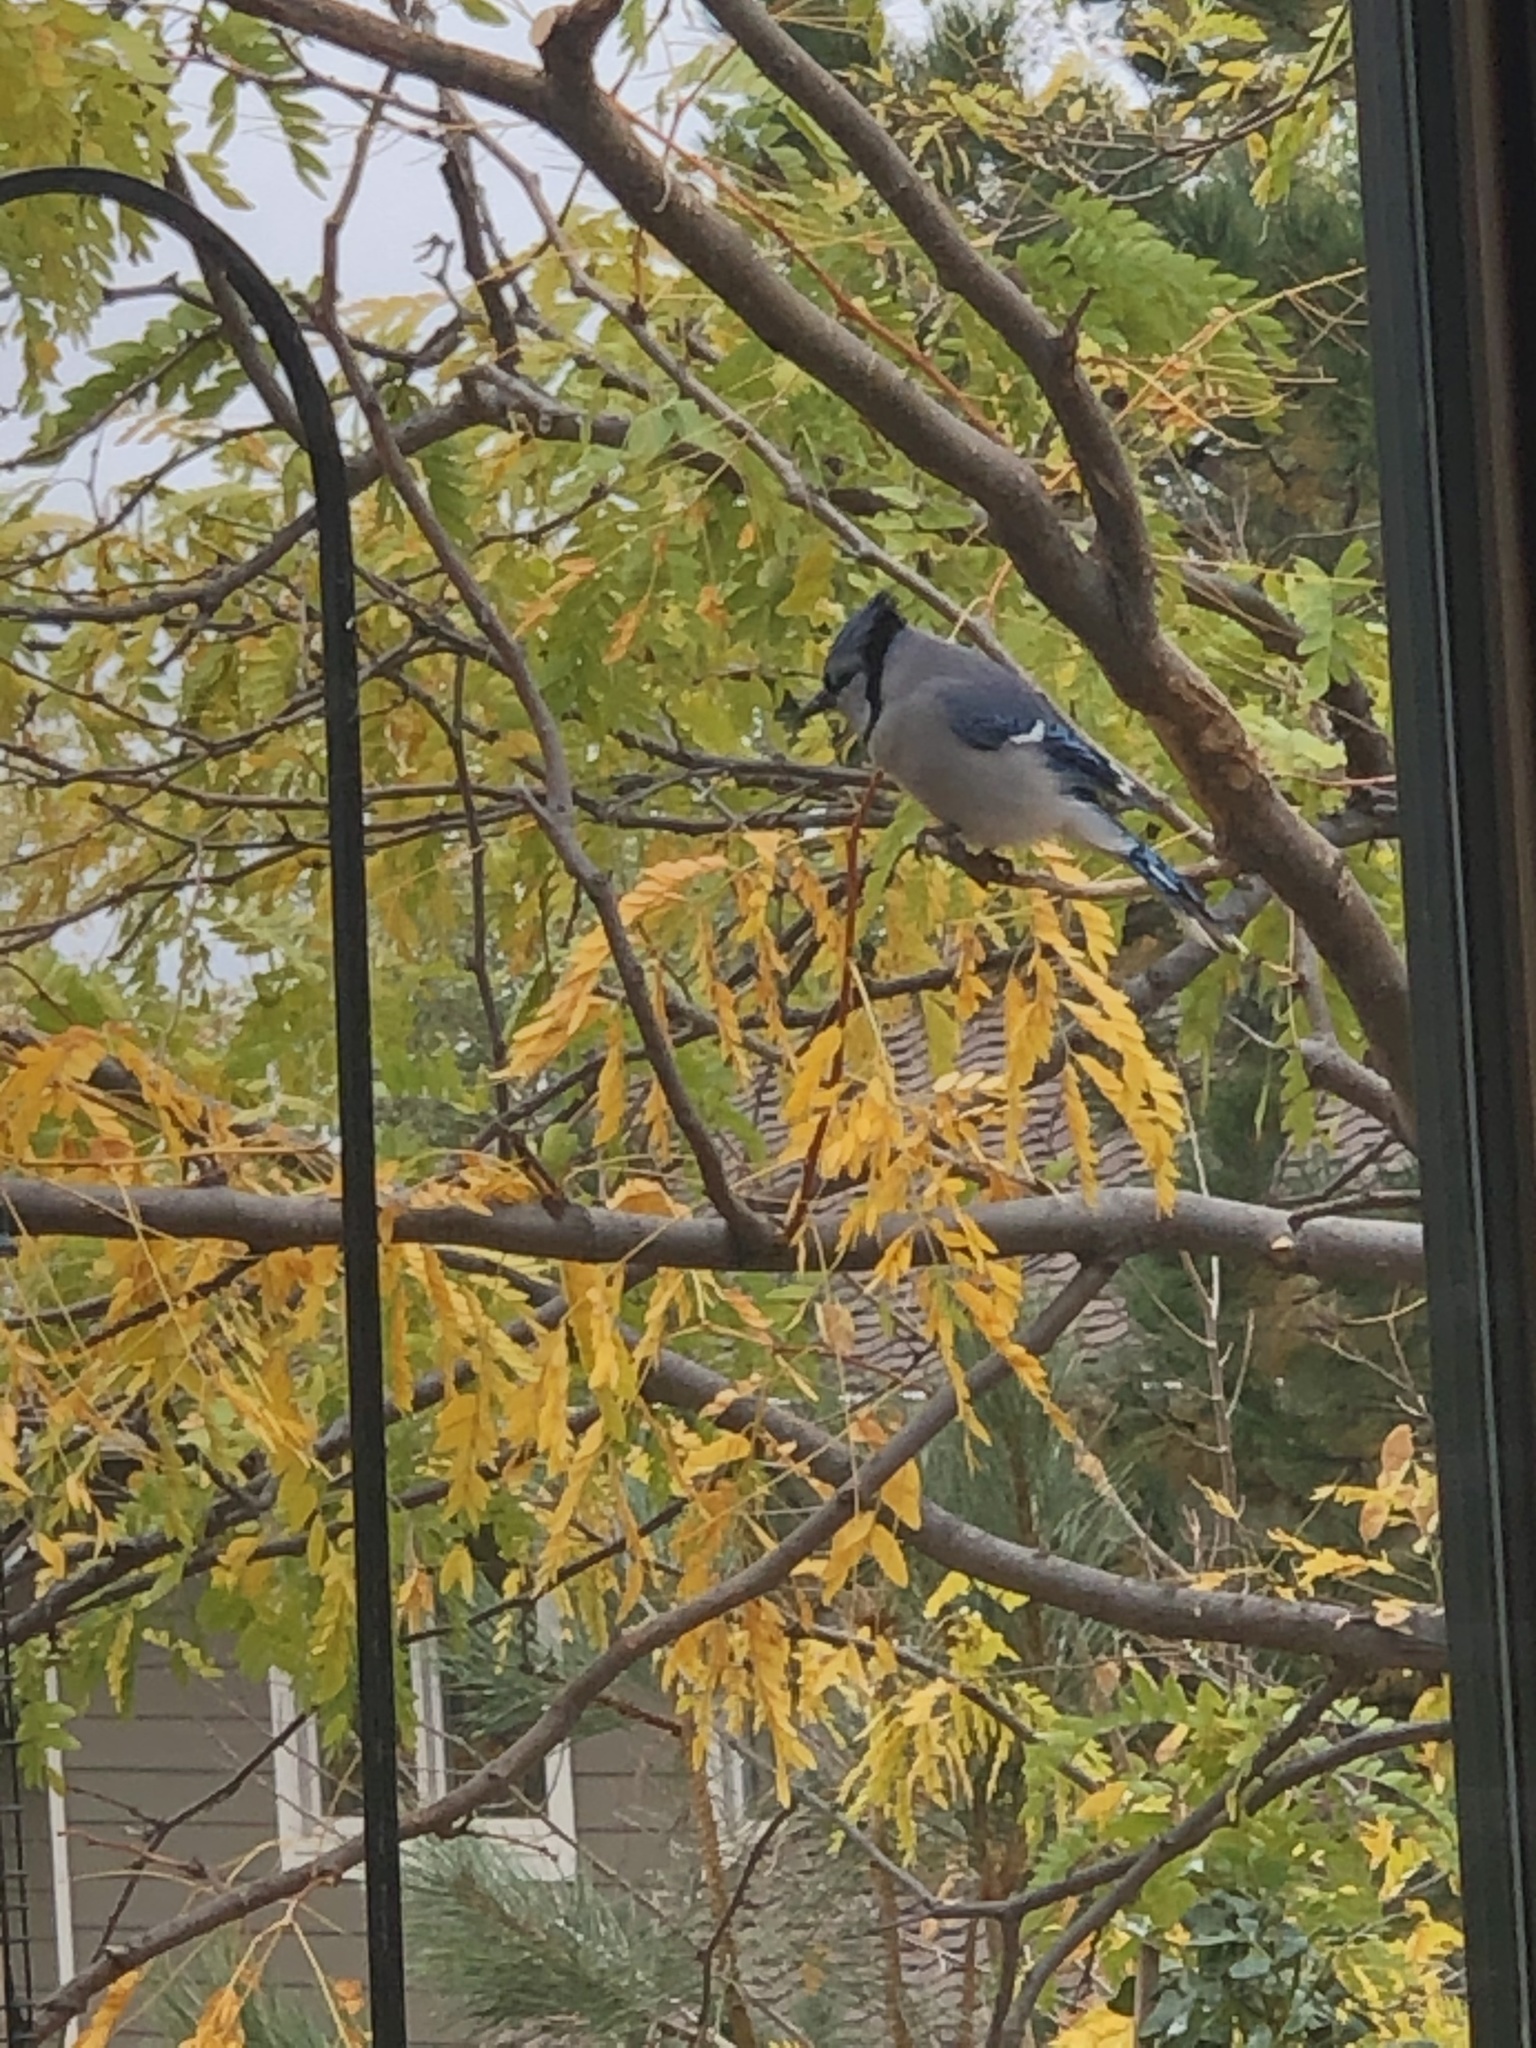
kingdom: Animalia
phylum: Chordata
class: Aves
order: Passeriformes
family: Corvidae
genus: Cyanocitta
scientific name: Cyanocitta cristata
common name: Blue jay
